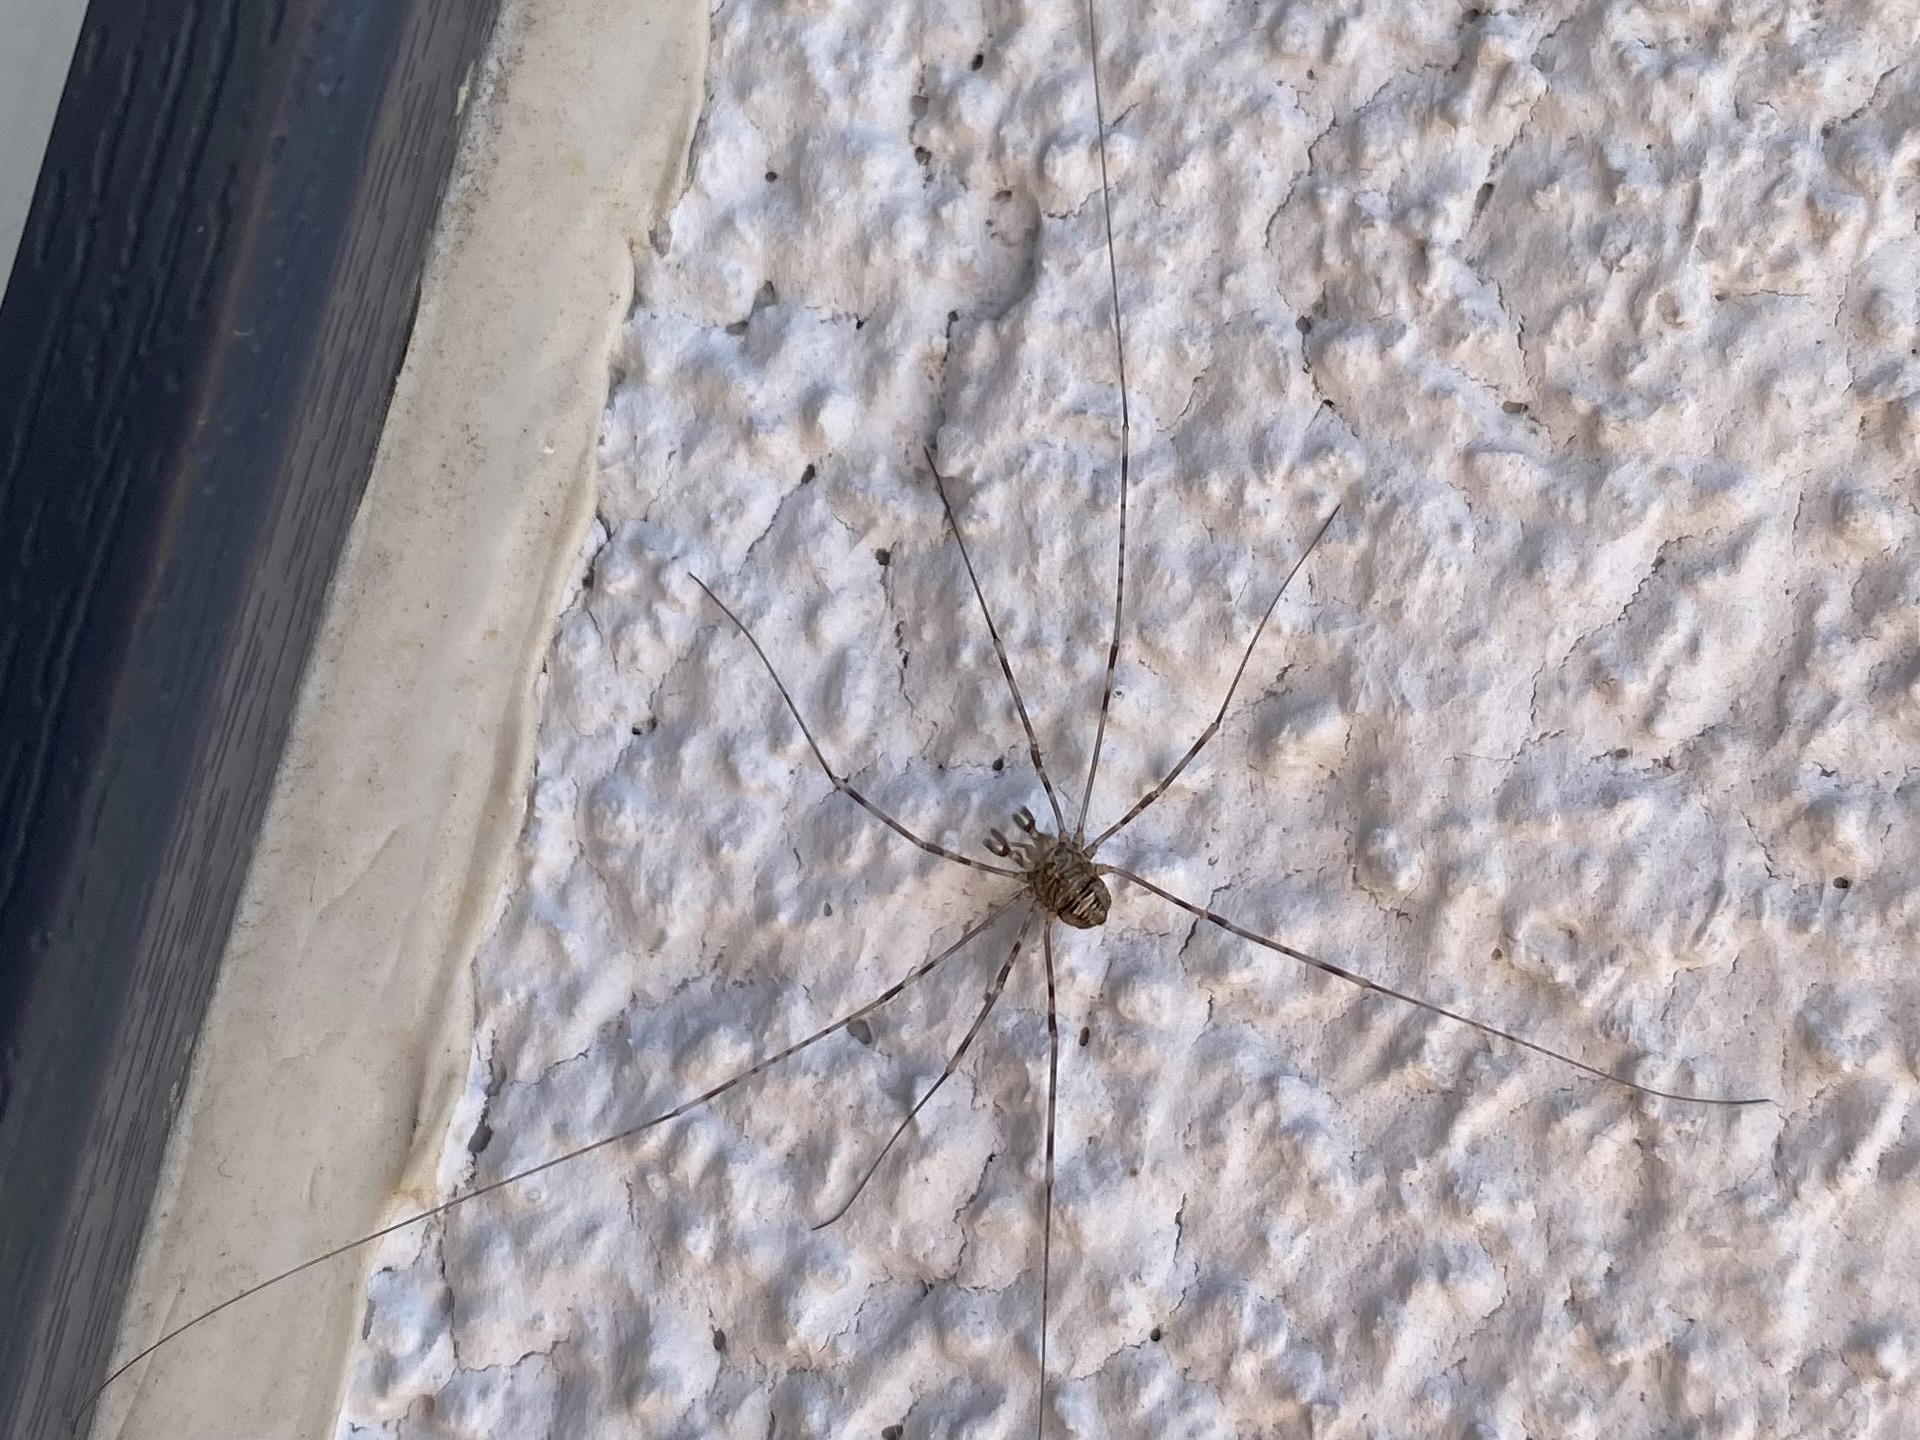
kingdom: Animalia
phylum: Arthropoda
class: Arachnida
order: Opiliones
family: Phalangiidae
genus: Dicranopalpus
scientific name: Dicranopalpus ramosus
